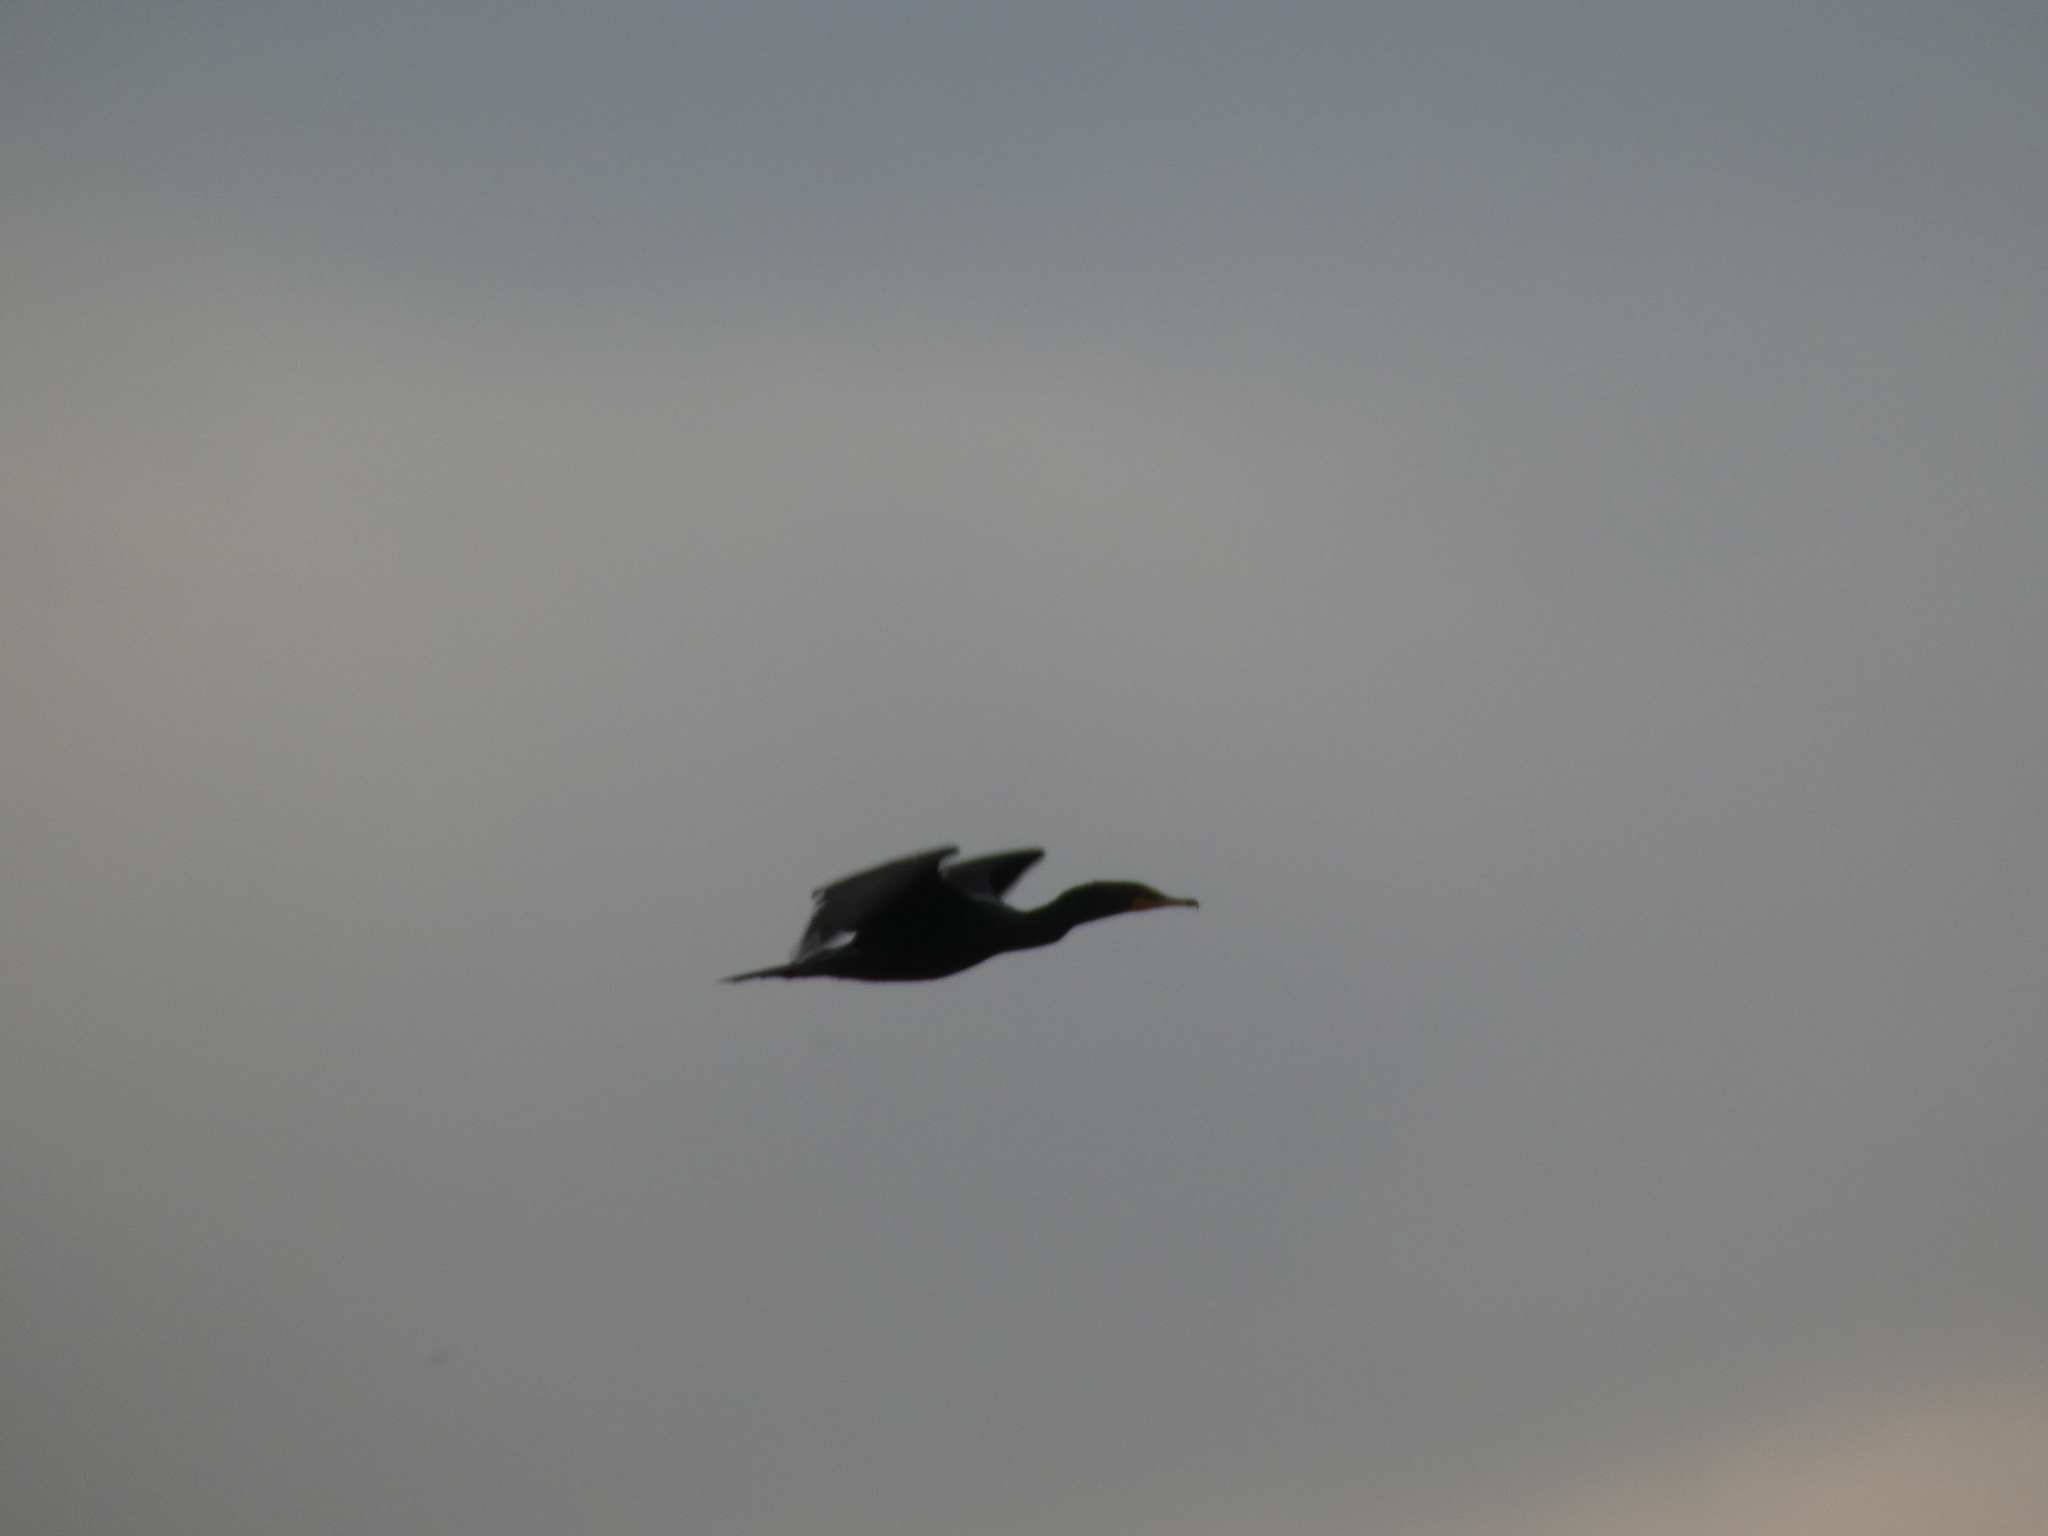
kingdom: Animalia
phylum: Chordata
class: Aves
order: Suliformes
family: Phalacrocoracidae
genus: Phalacrocorax
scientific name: Phalacrocorax auritus
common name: Double-crested cormorant
